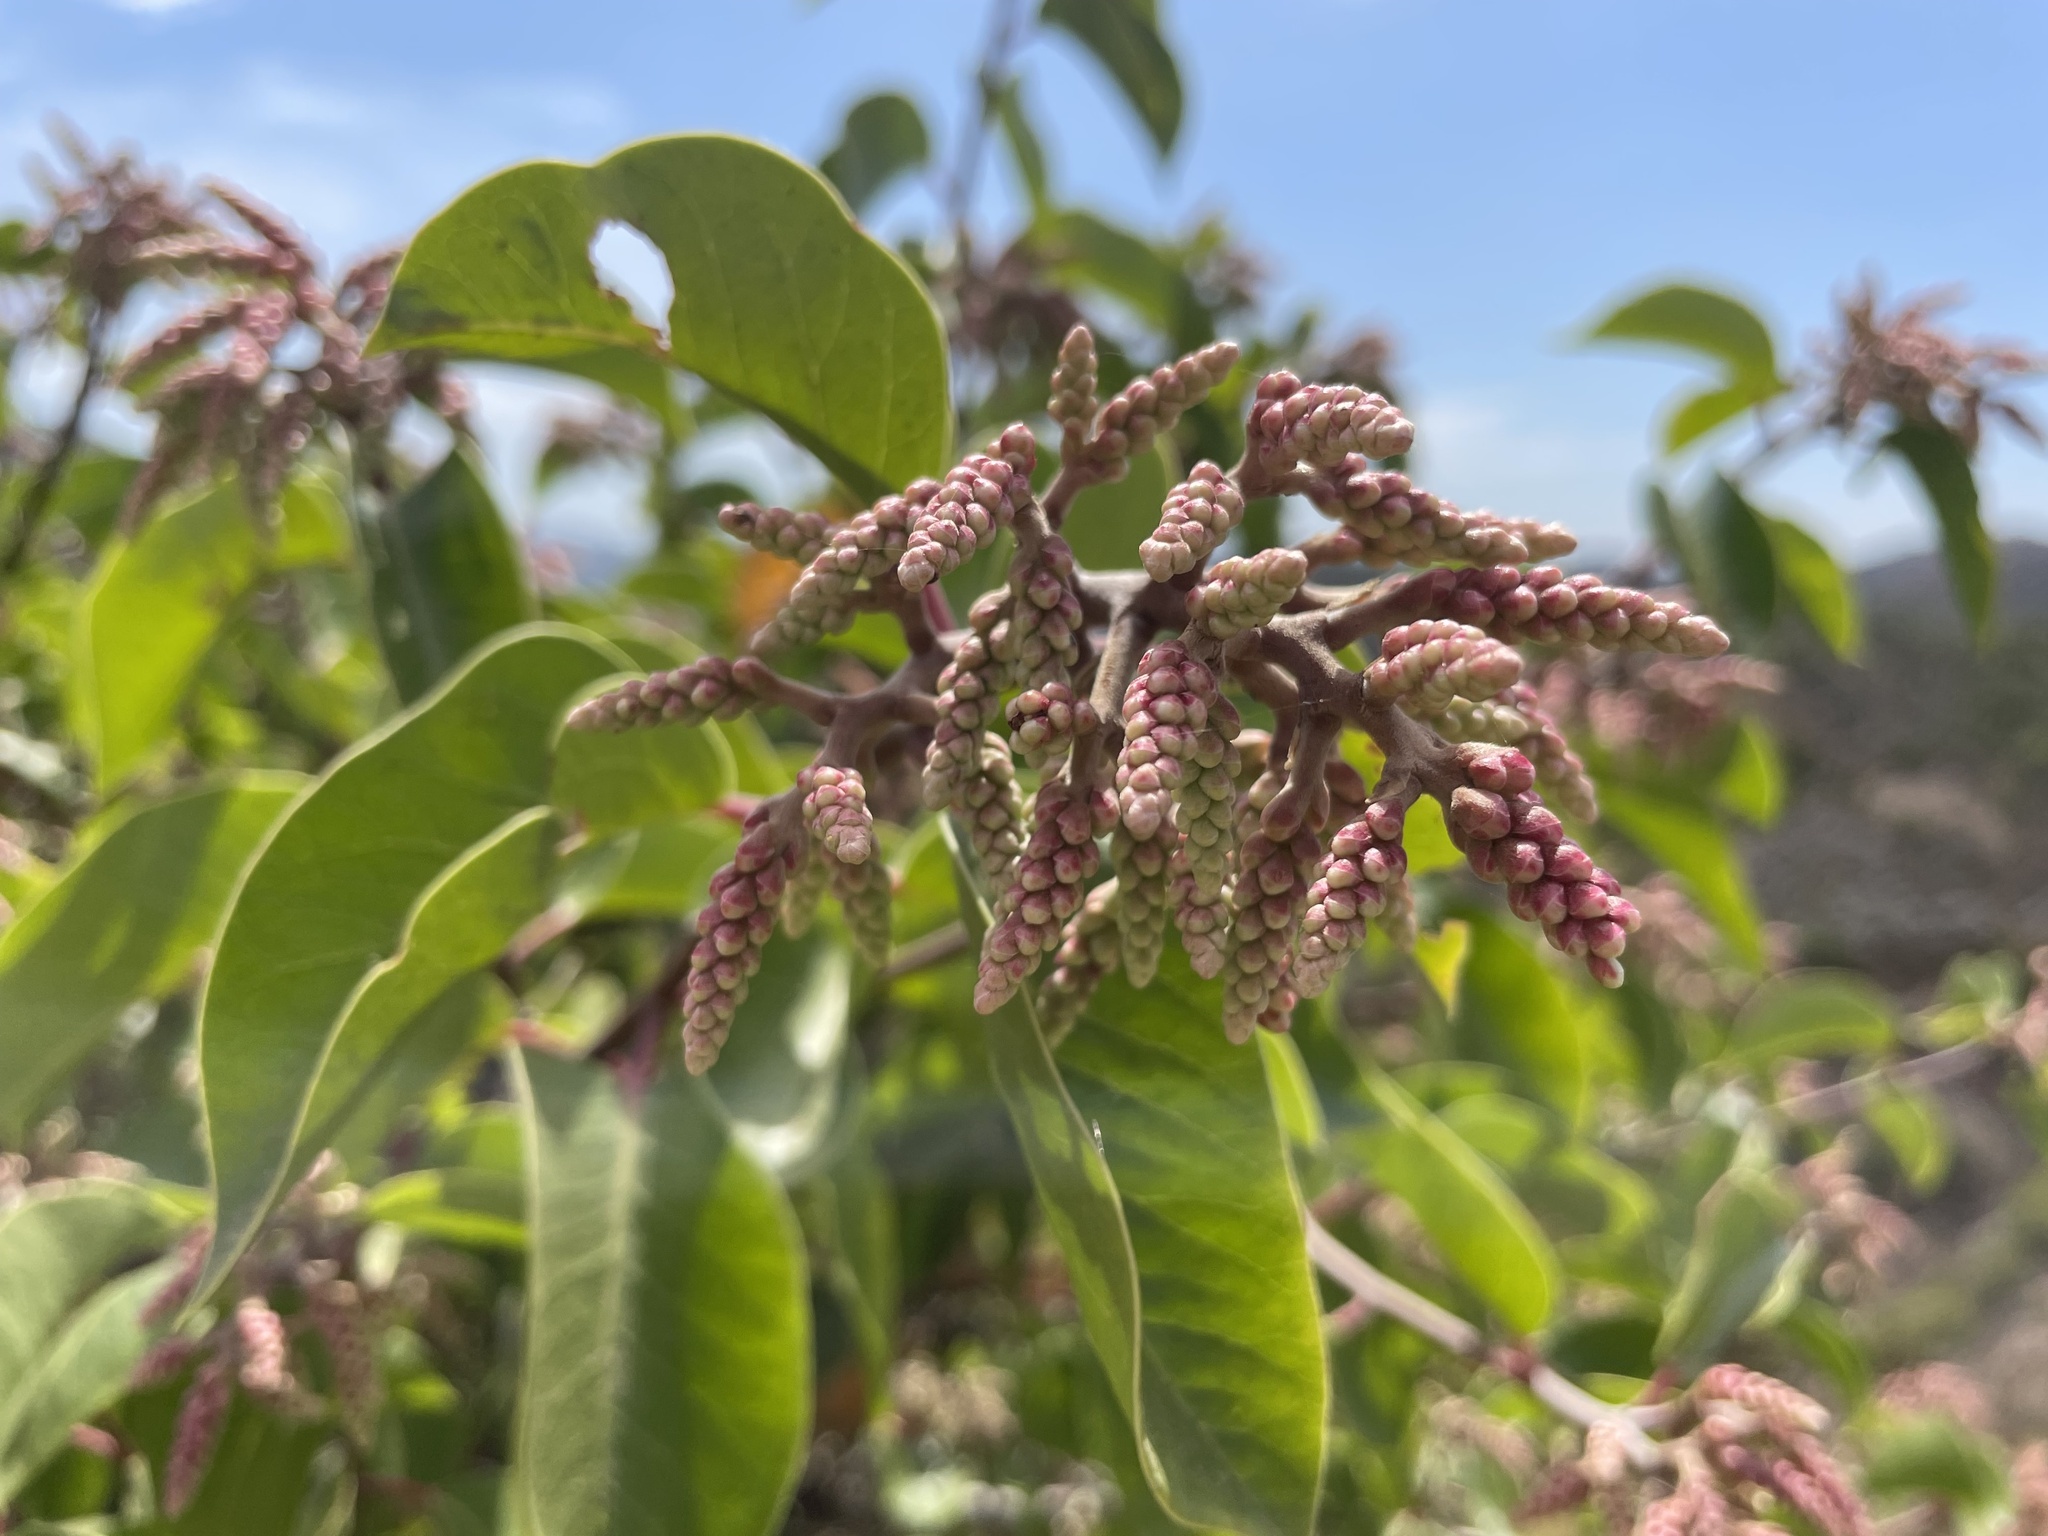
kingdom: Plantae
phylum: Tracheophyta
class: Magnoliopsida
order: Sapindales
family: Anacardiaceae
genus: Rhus
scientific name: Rhus ovata
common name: Sugar sumac
